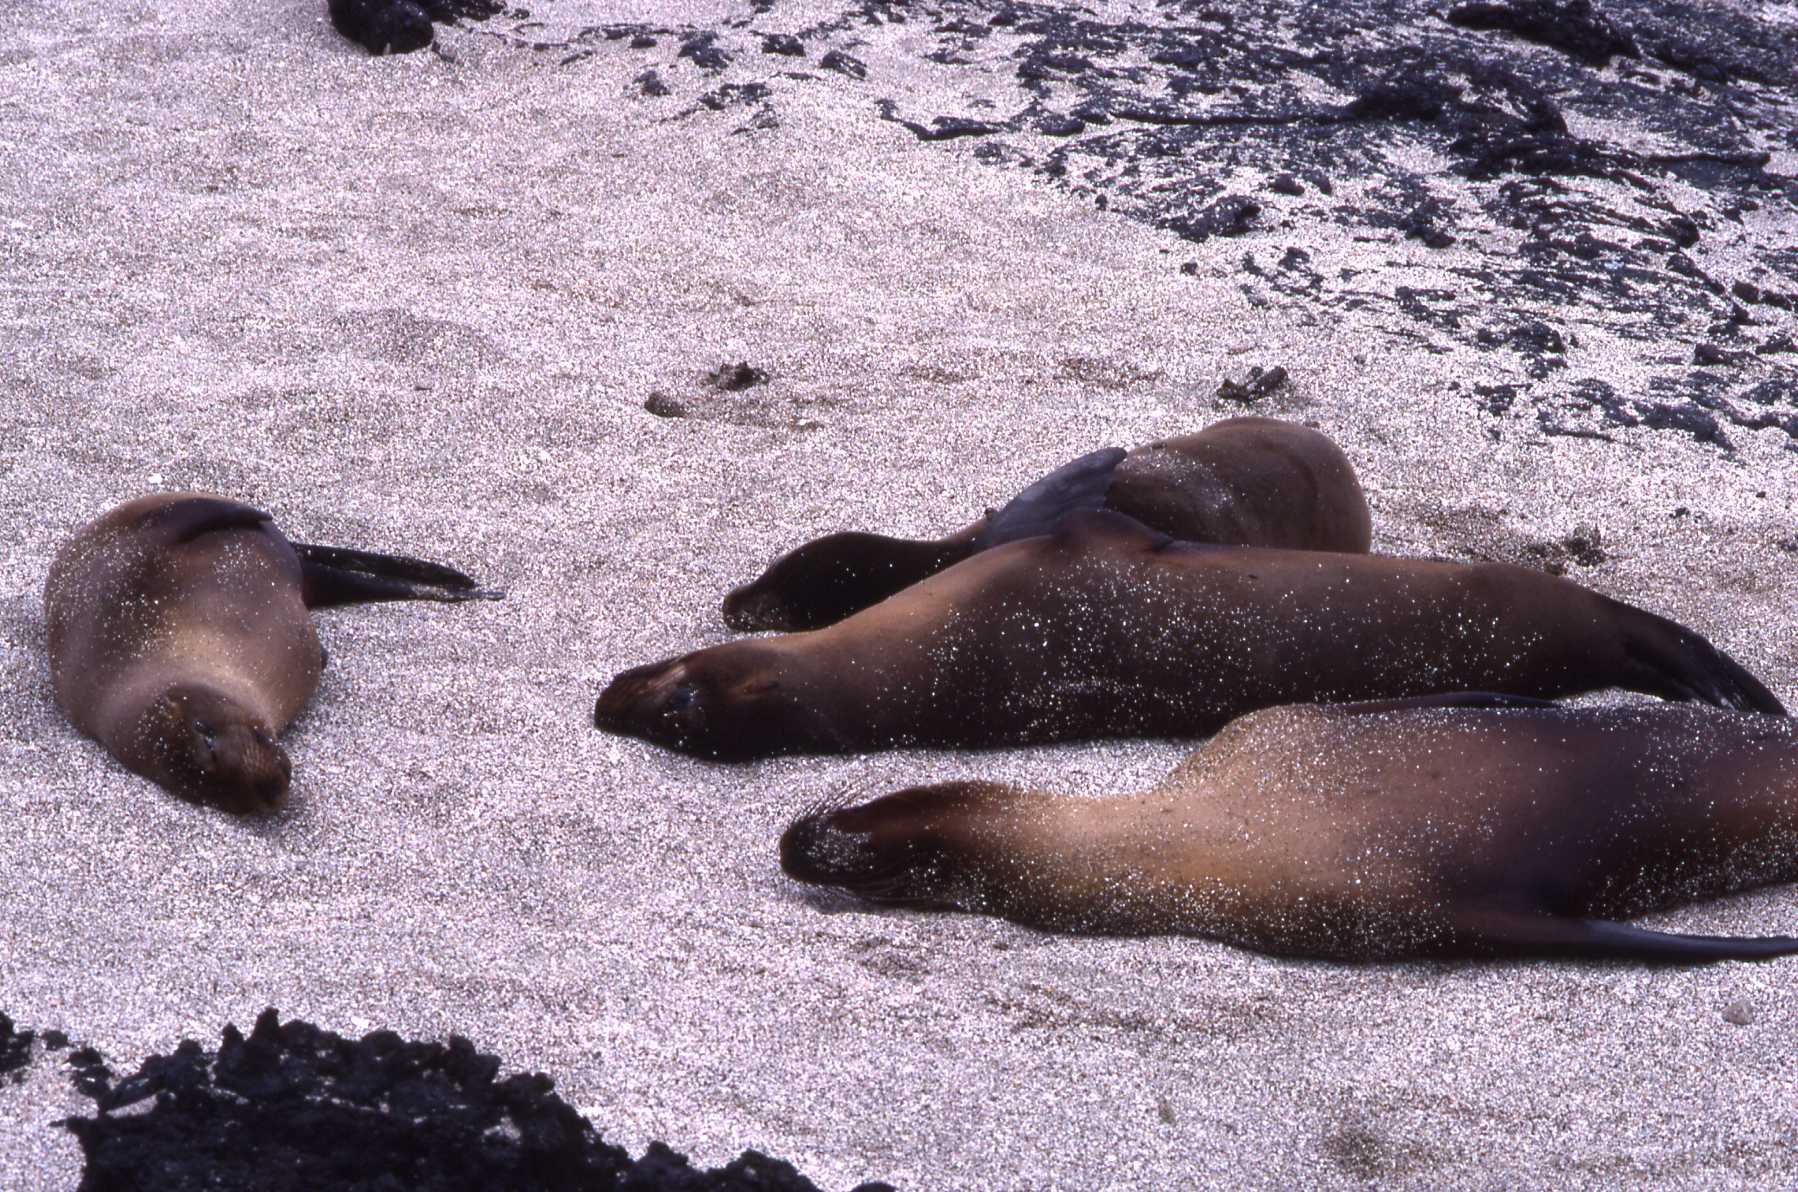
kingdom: Animalia
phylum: Chordata
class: Mammalia
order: Carnivora
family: Otariidae
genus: Zalophus
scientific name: Zalophus wollebaeki
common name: Galapagos sea lion
